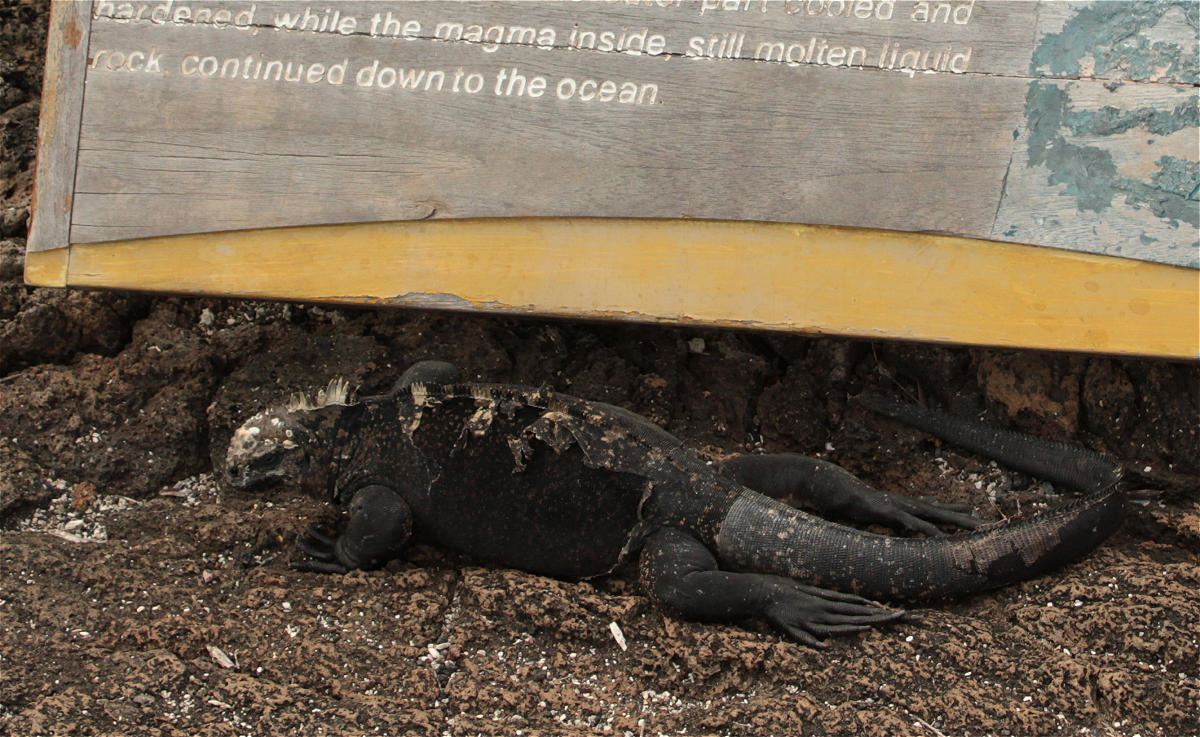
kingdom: Animalia
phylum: Chordata
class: Squamata
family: Iguanidae
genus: Amblyrhynchus
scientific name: Amblyrhynchus cristatus
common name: Marine iguana
